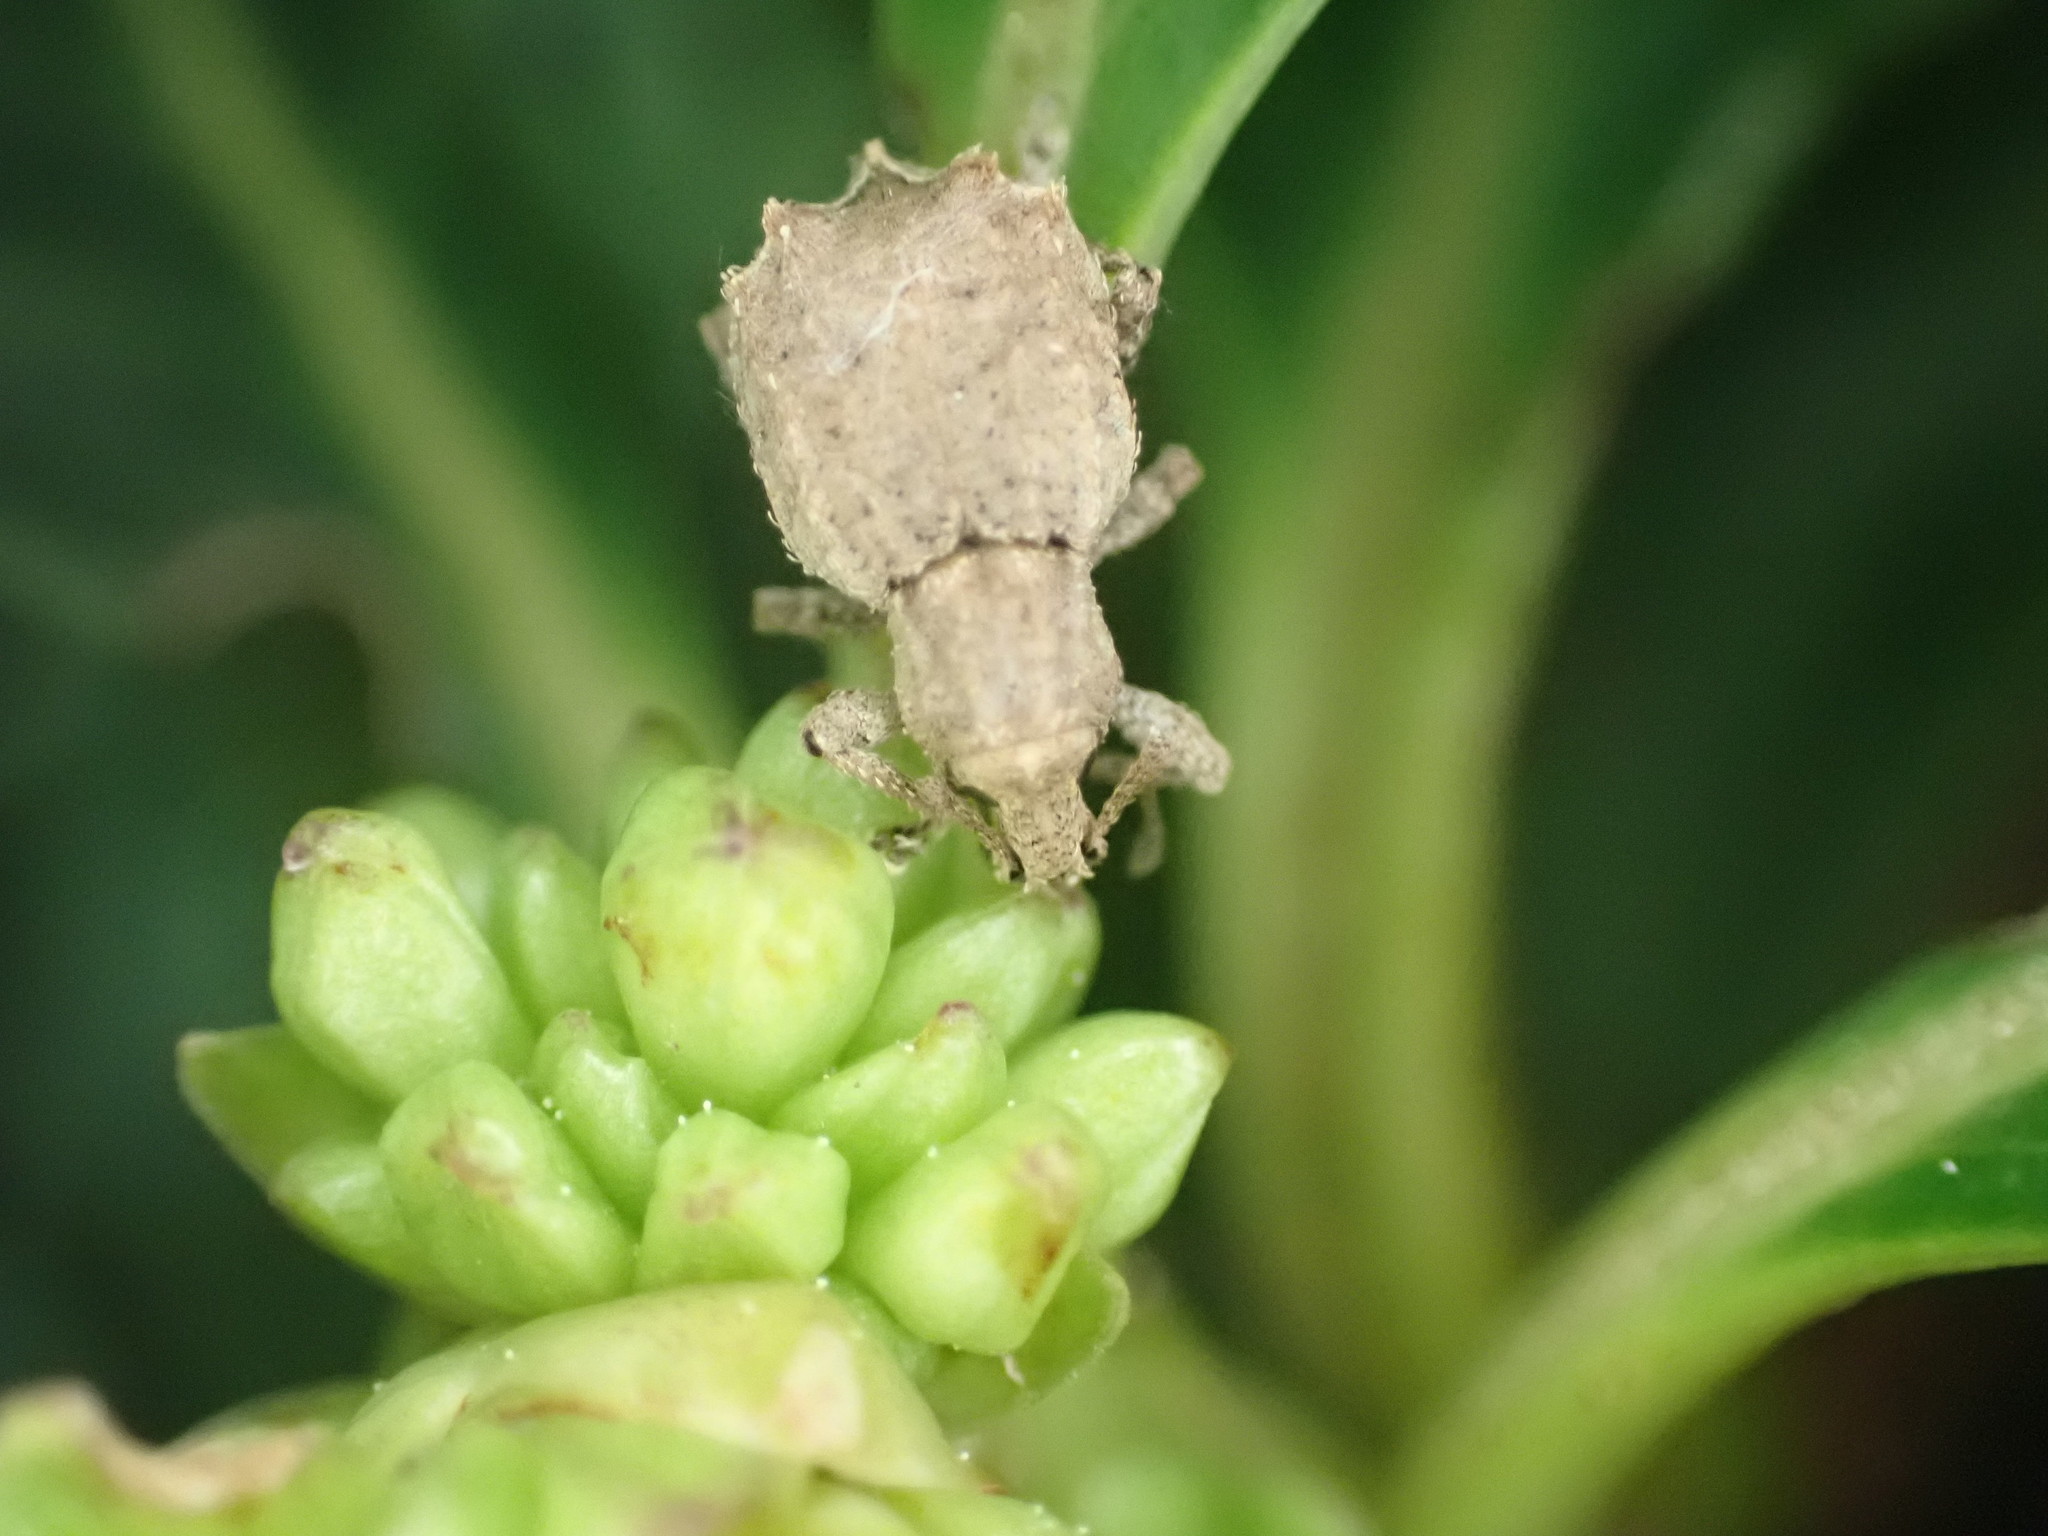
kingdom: Animalia
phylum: Arthropoda
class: Insecta
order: Coleoptera
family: Curculionidae
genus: Chalepistes
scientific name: Chalepistes costifer
